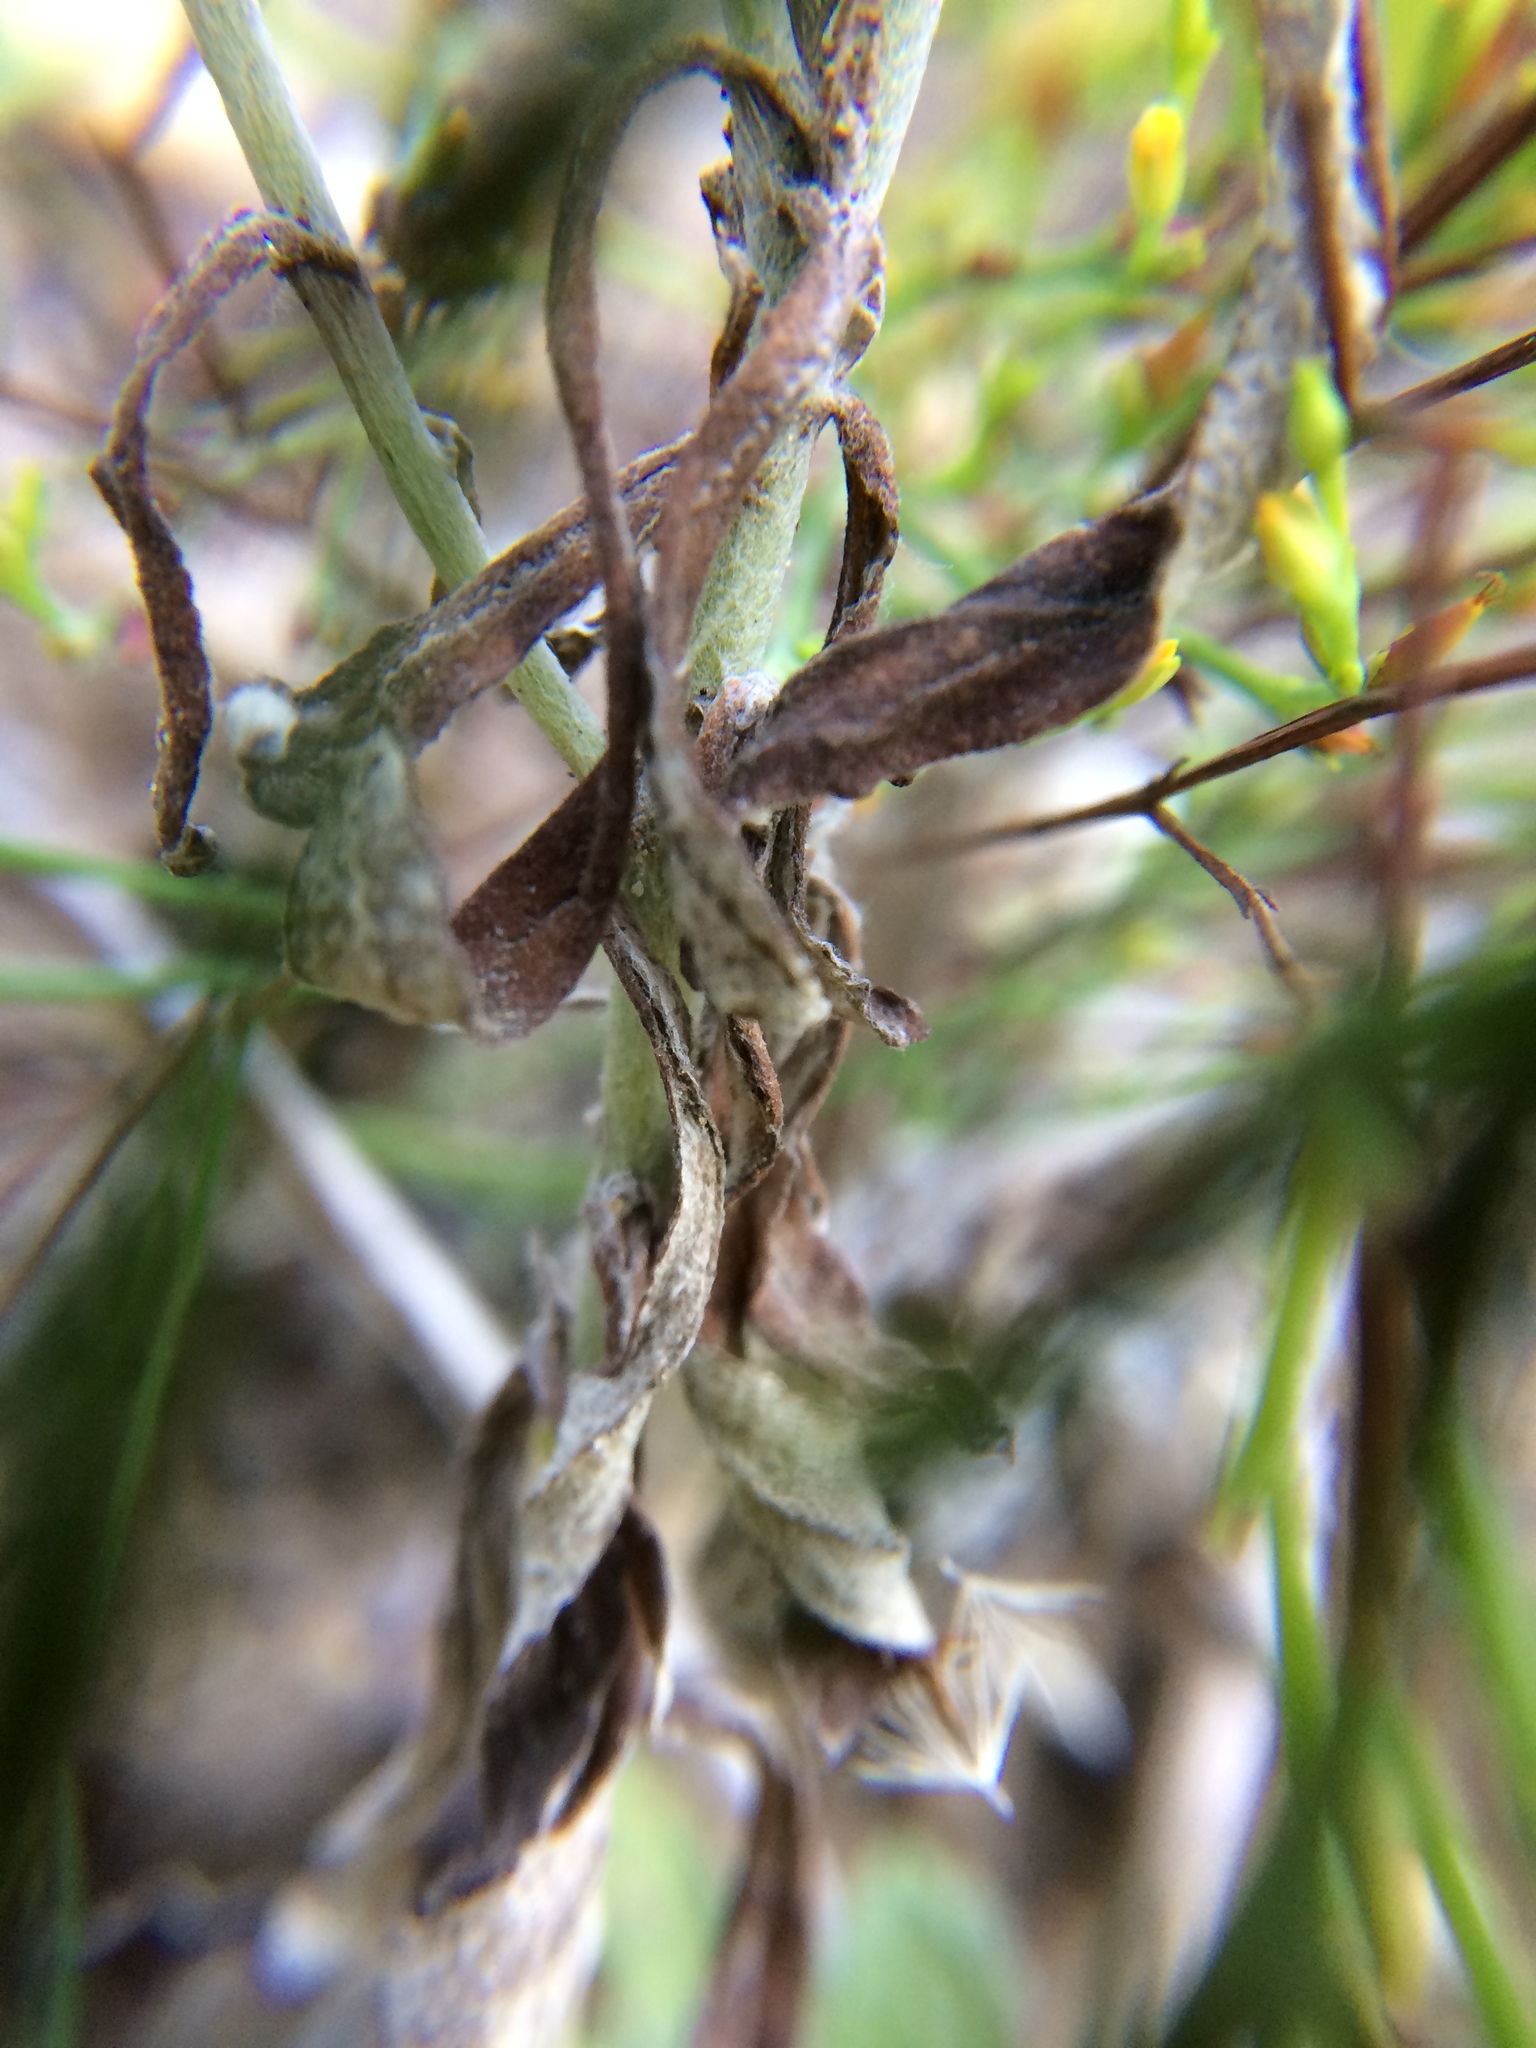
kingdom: Plantae
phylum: Tracheophyta
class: Magnoliopsida
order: Asterales
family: Asteraceae
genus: Pseudognaphalium
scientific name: Pseudognaphalium obtusifolium
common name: Eastern rabbit-tobacco
